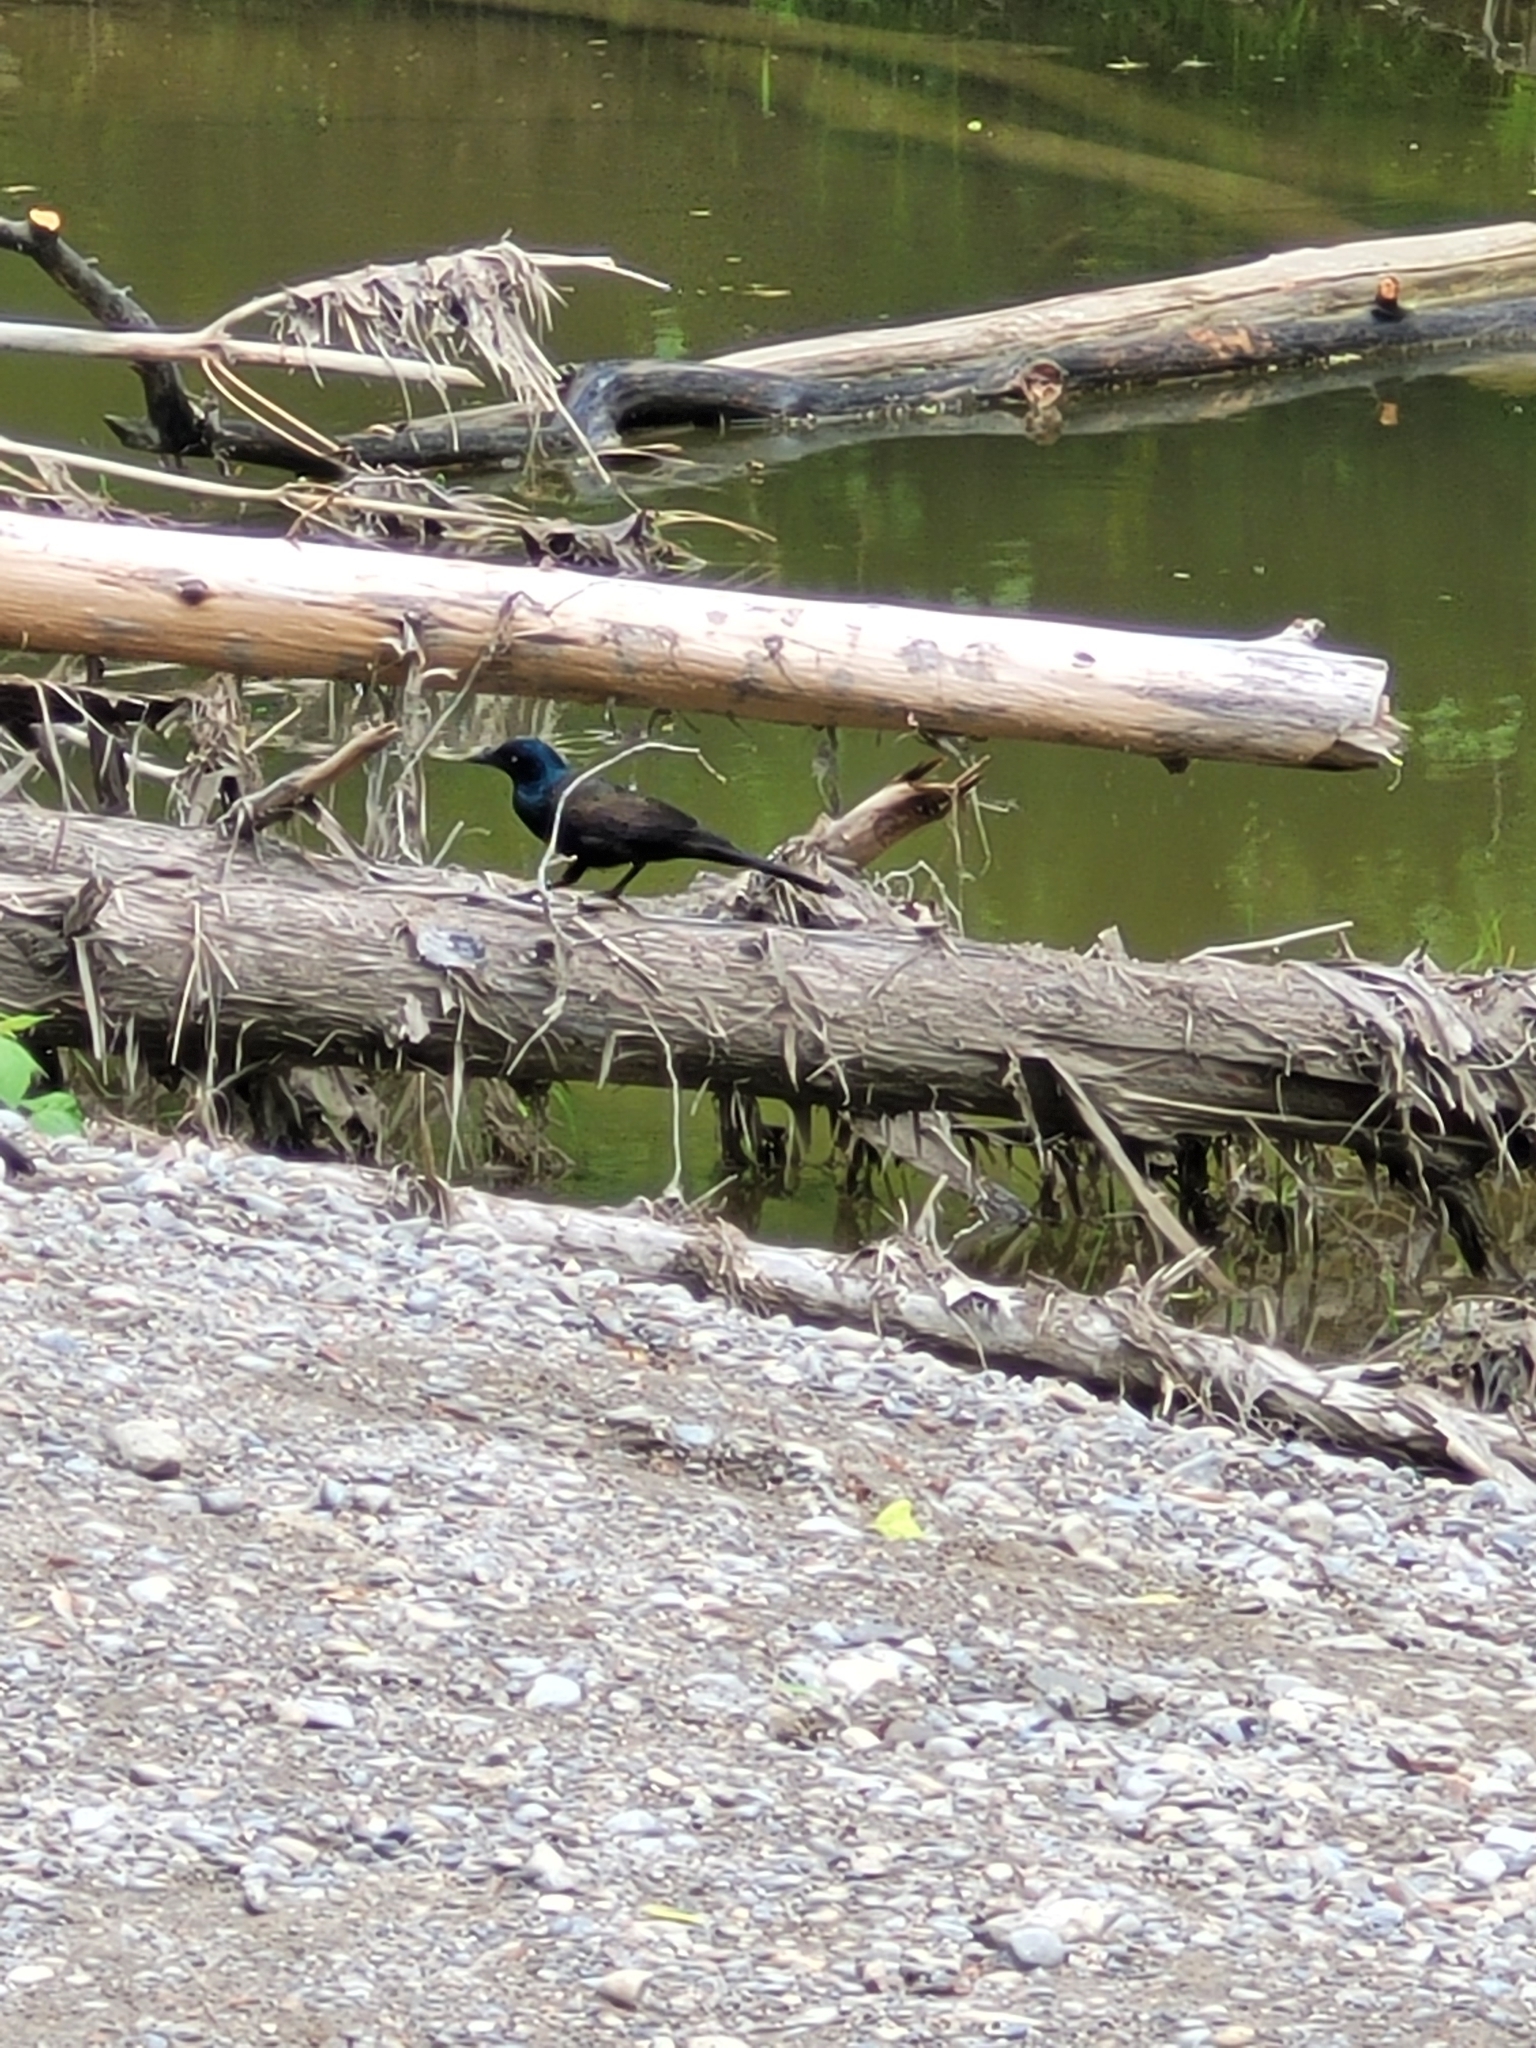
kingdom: Animalia
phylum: Chordata
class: Aves
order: Passeriformes
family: Icteridae
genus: Quiscalus
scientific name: Quiscalus quiscula
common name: Common grackle
